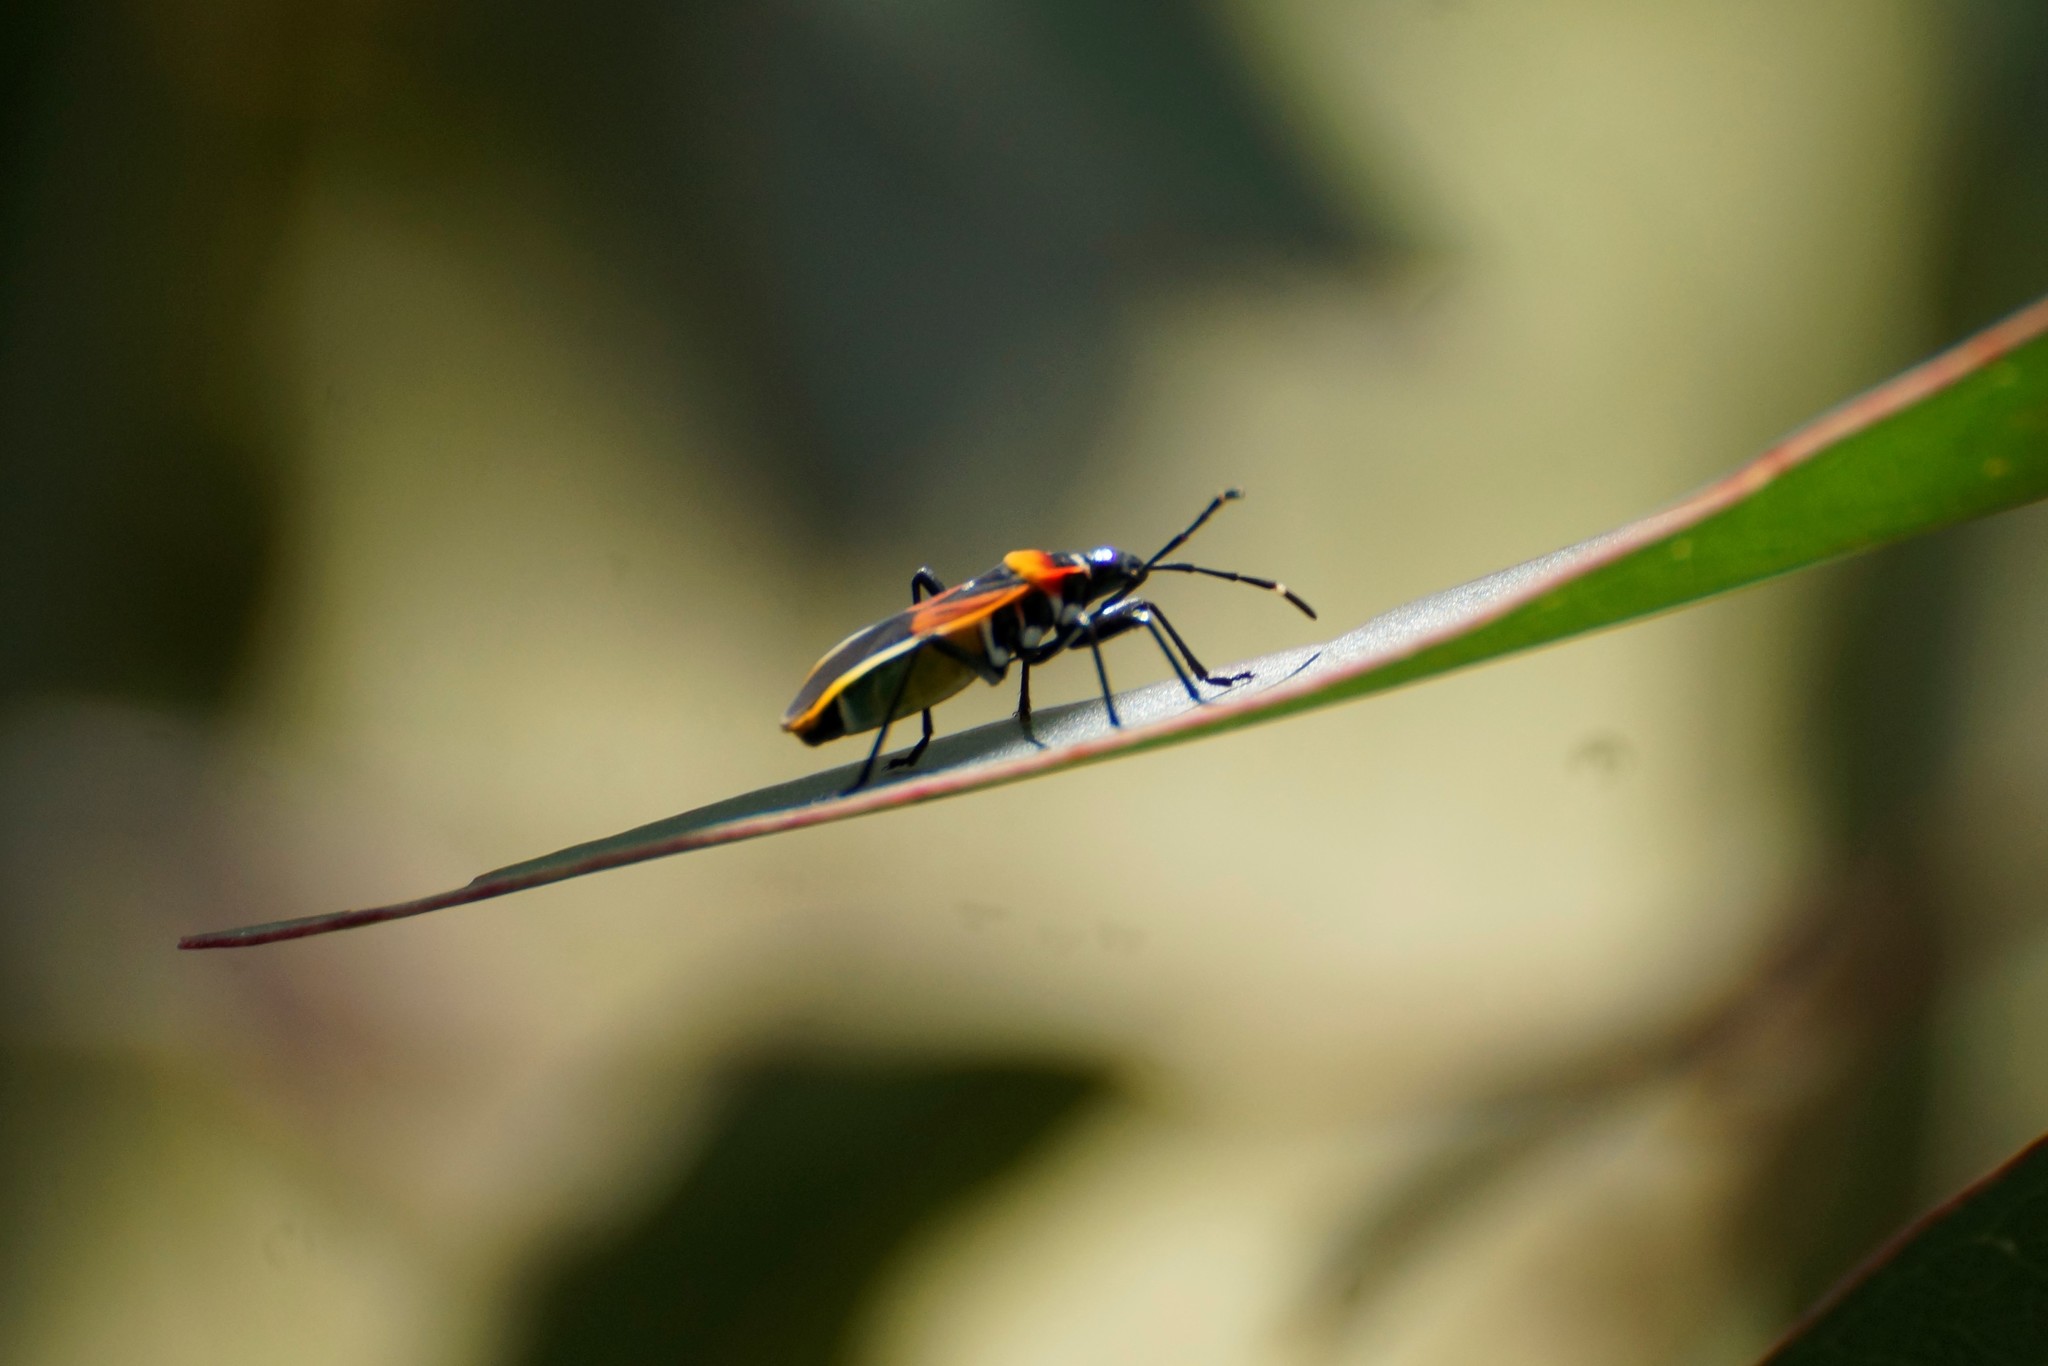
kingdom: Animalia
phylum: Arthropoda
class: Insecta
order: Hemiptera
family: Pyrrhocoridae
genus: Dindymus
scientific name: Dindymus
